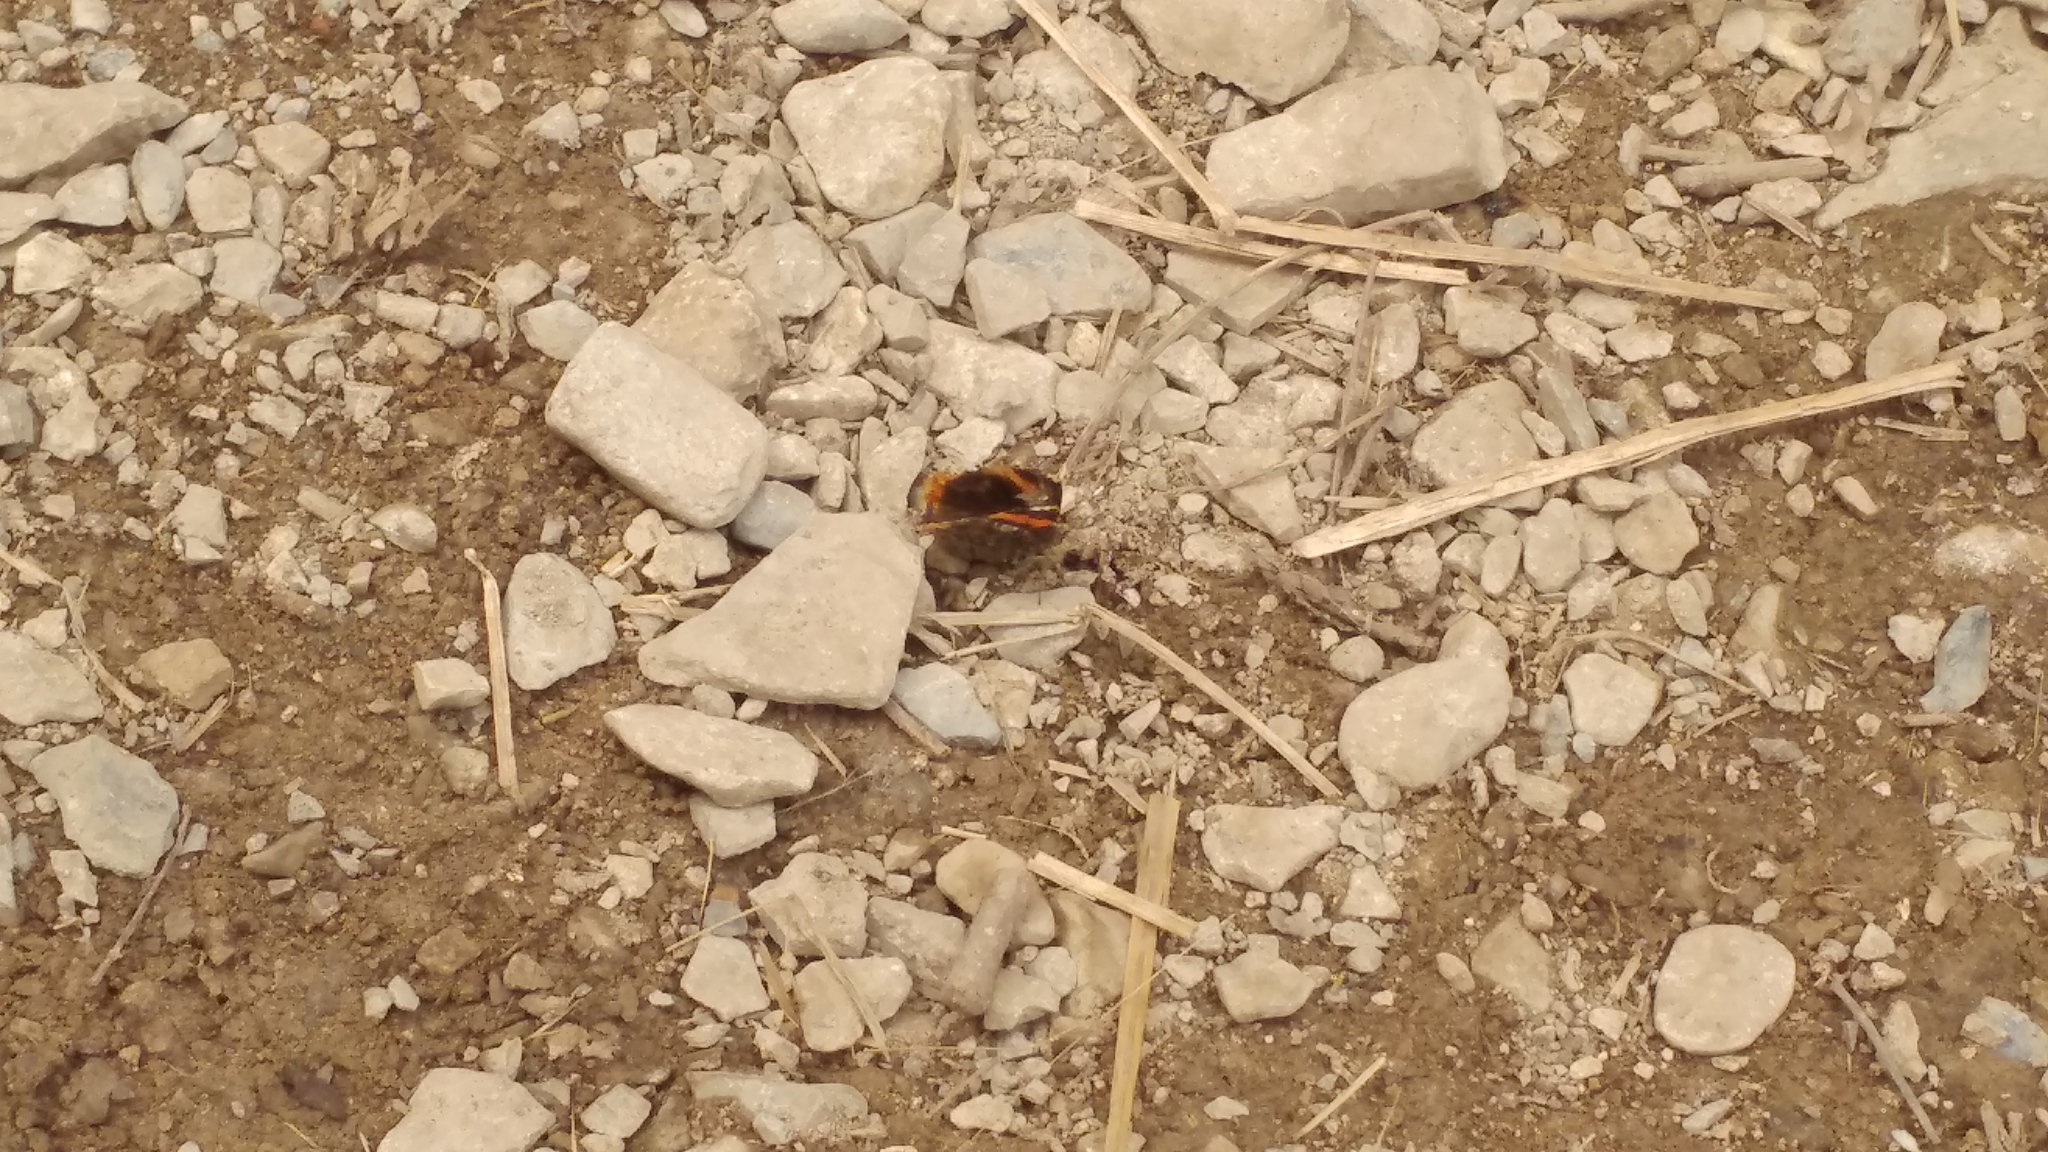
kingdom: Animalia
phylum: Arthropoda
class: Insecta
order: Lepidoptera
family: Nymphalidae
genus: Vanessa
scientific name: Vanessa atalanta
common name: Red admiral
